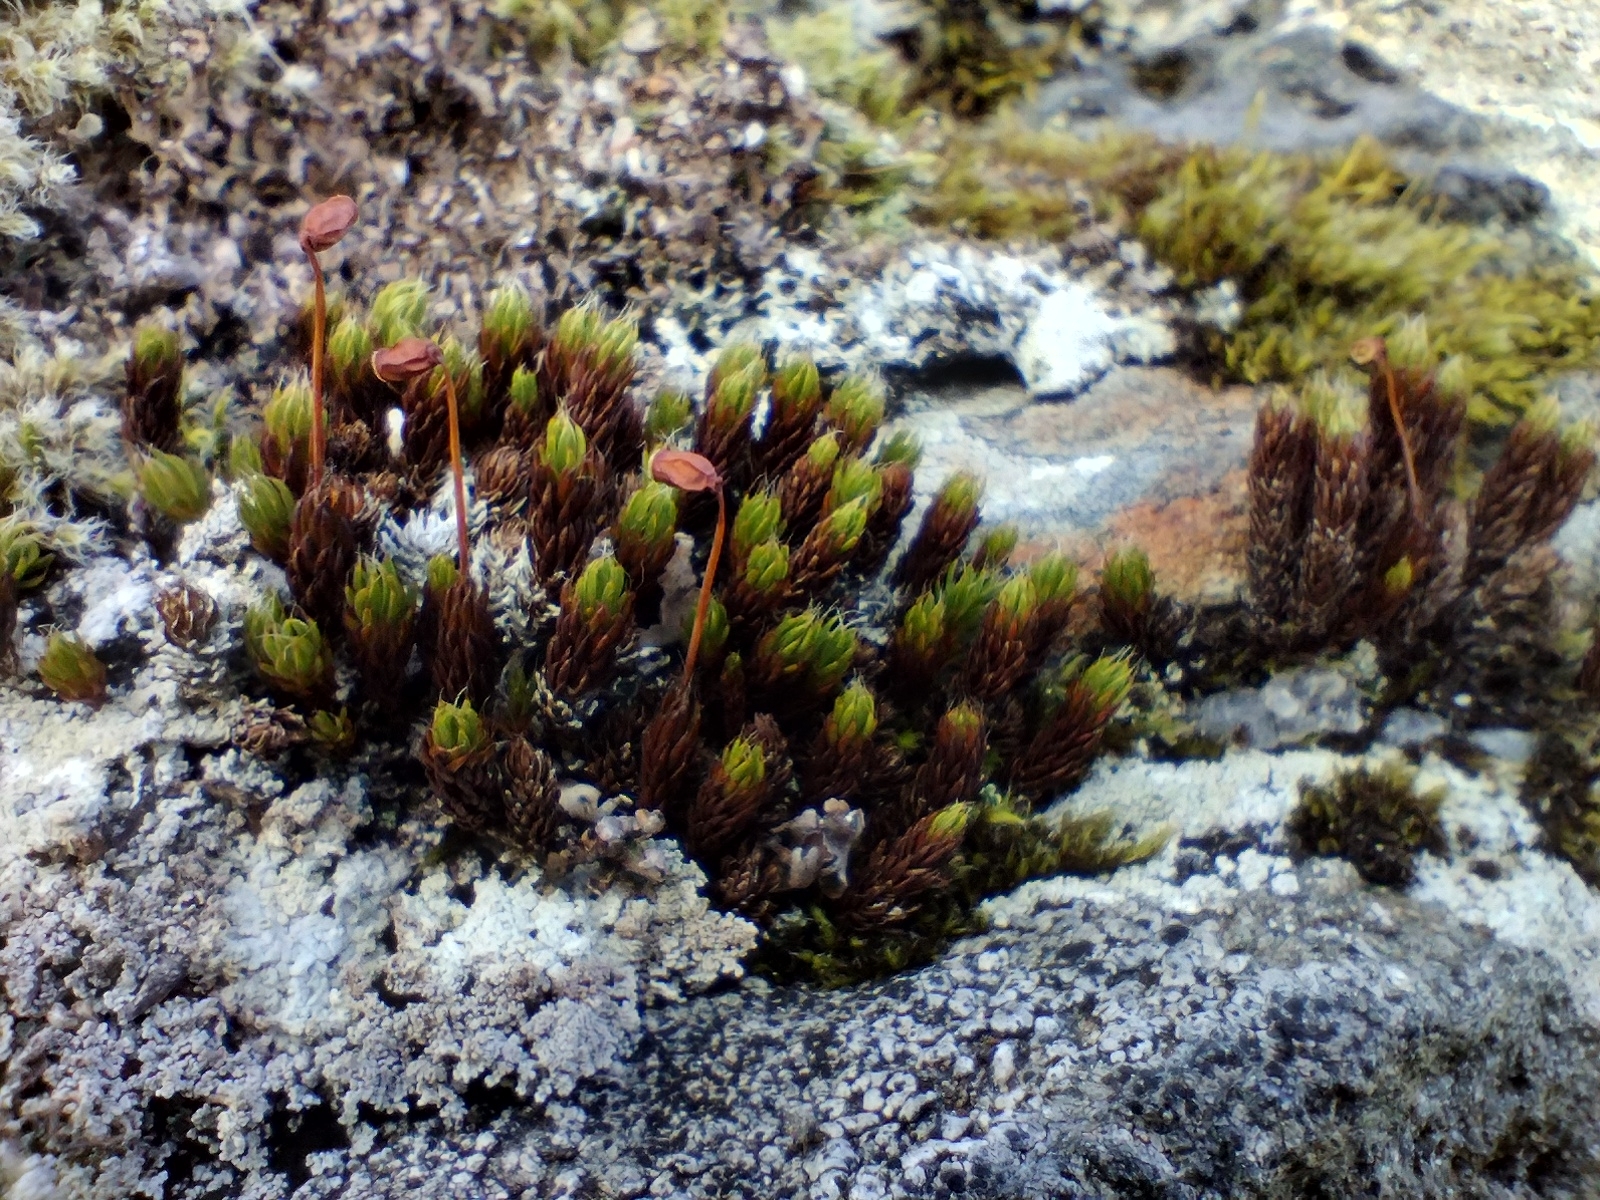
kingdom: Plantae
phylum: Bryophyta
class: Polytrichopsida
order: Polytrichales
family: Polytrichaceae
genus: Polytrichum
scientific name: Polytrichum piliferum
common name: Bristly haircap
